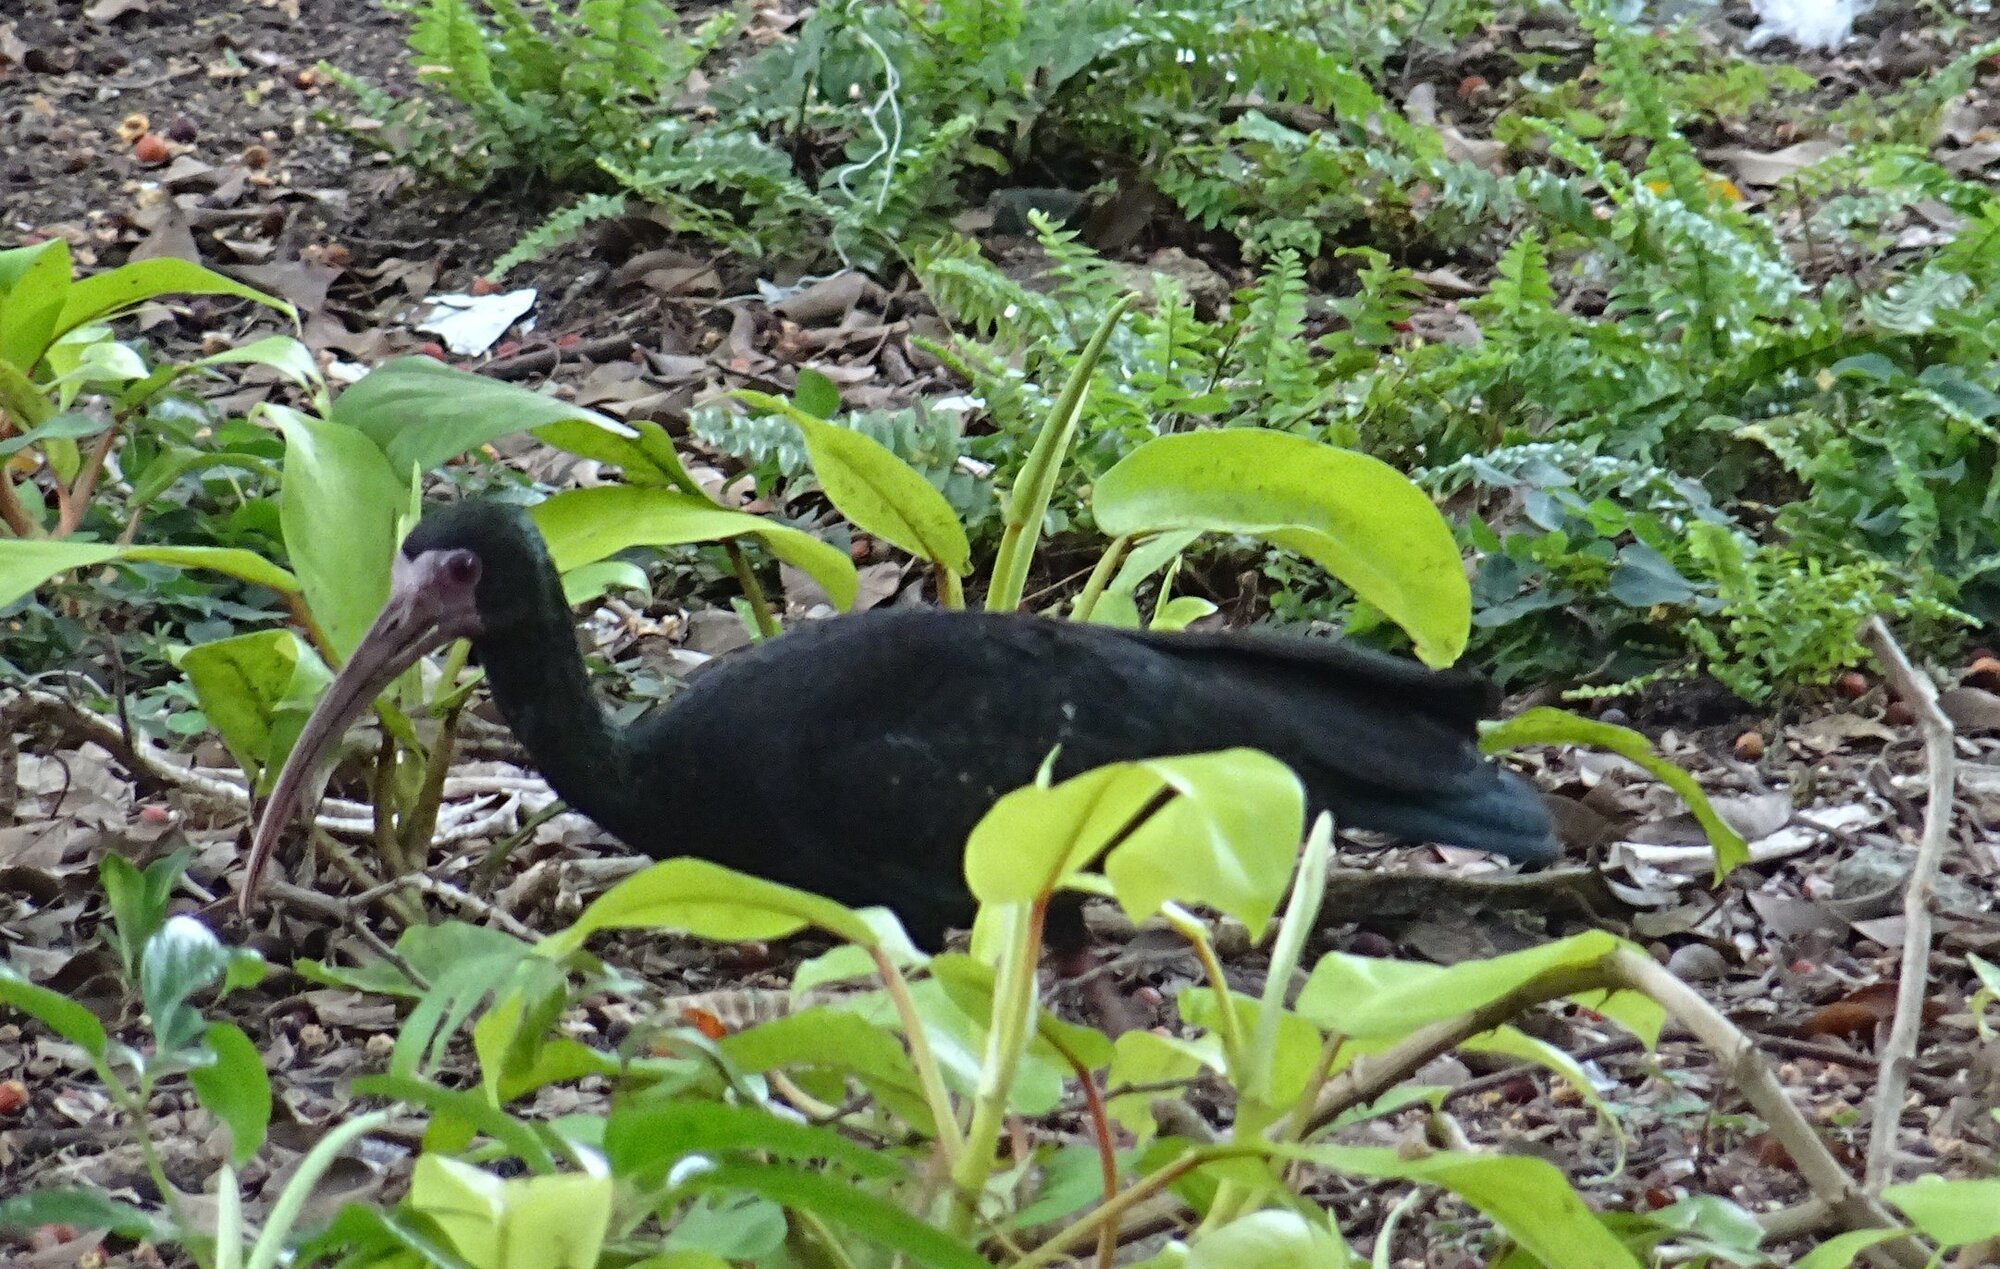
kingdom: Animalia
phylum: Chordata
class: Aves
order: Pelecaniformes
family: Threskiornithidae
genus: Phimosus
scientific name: Phimosus infuscatus
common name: Bare-faced ibis
